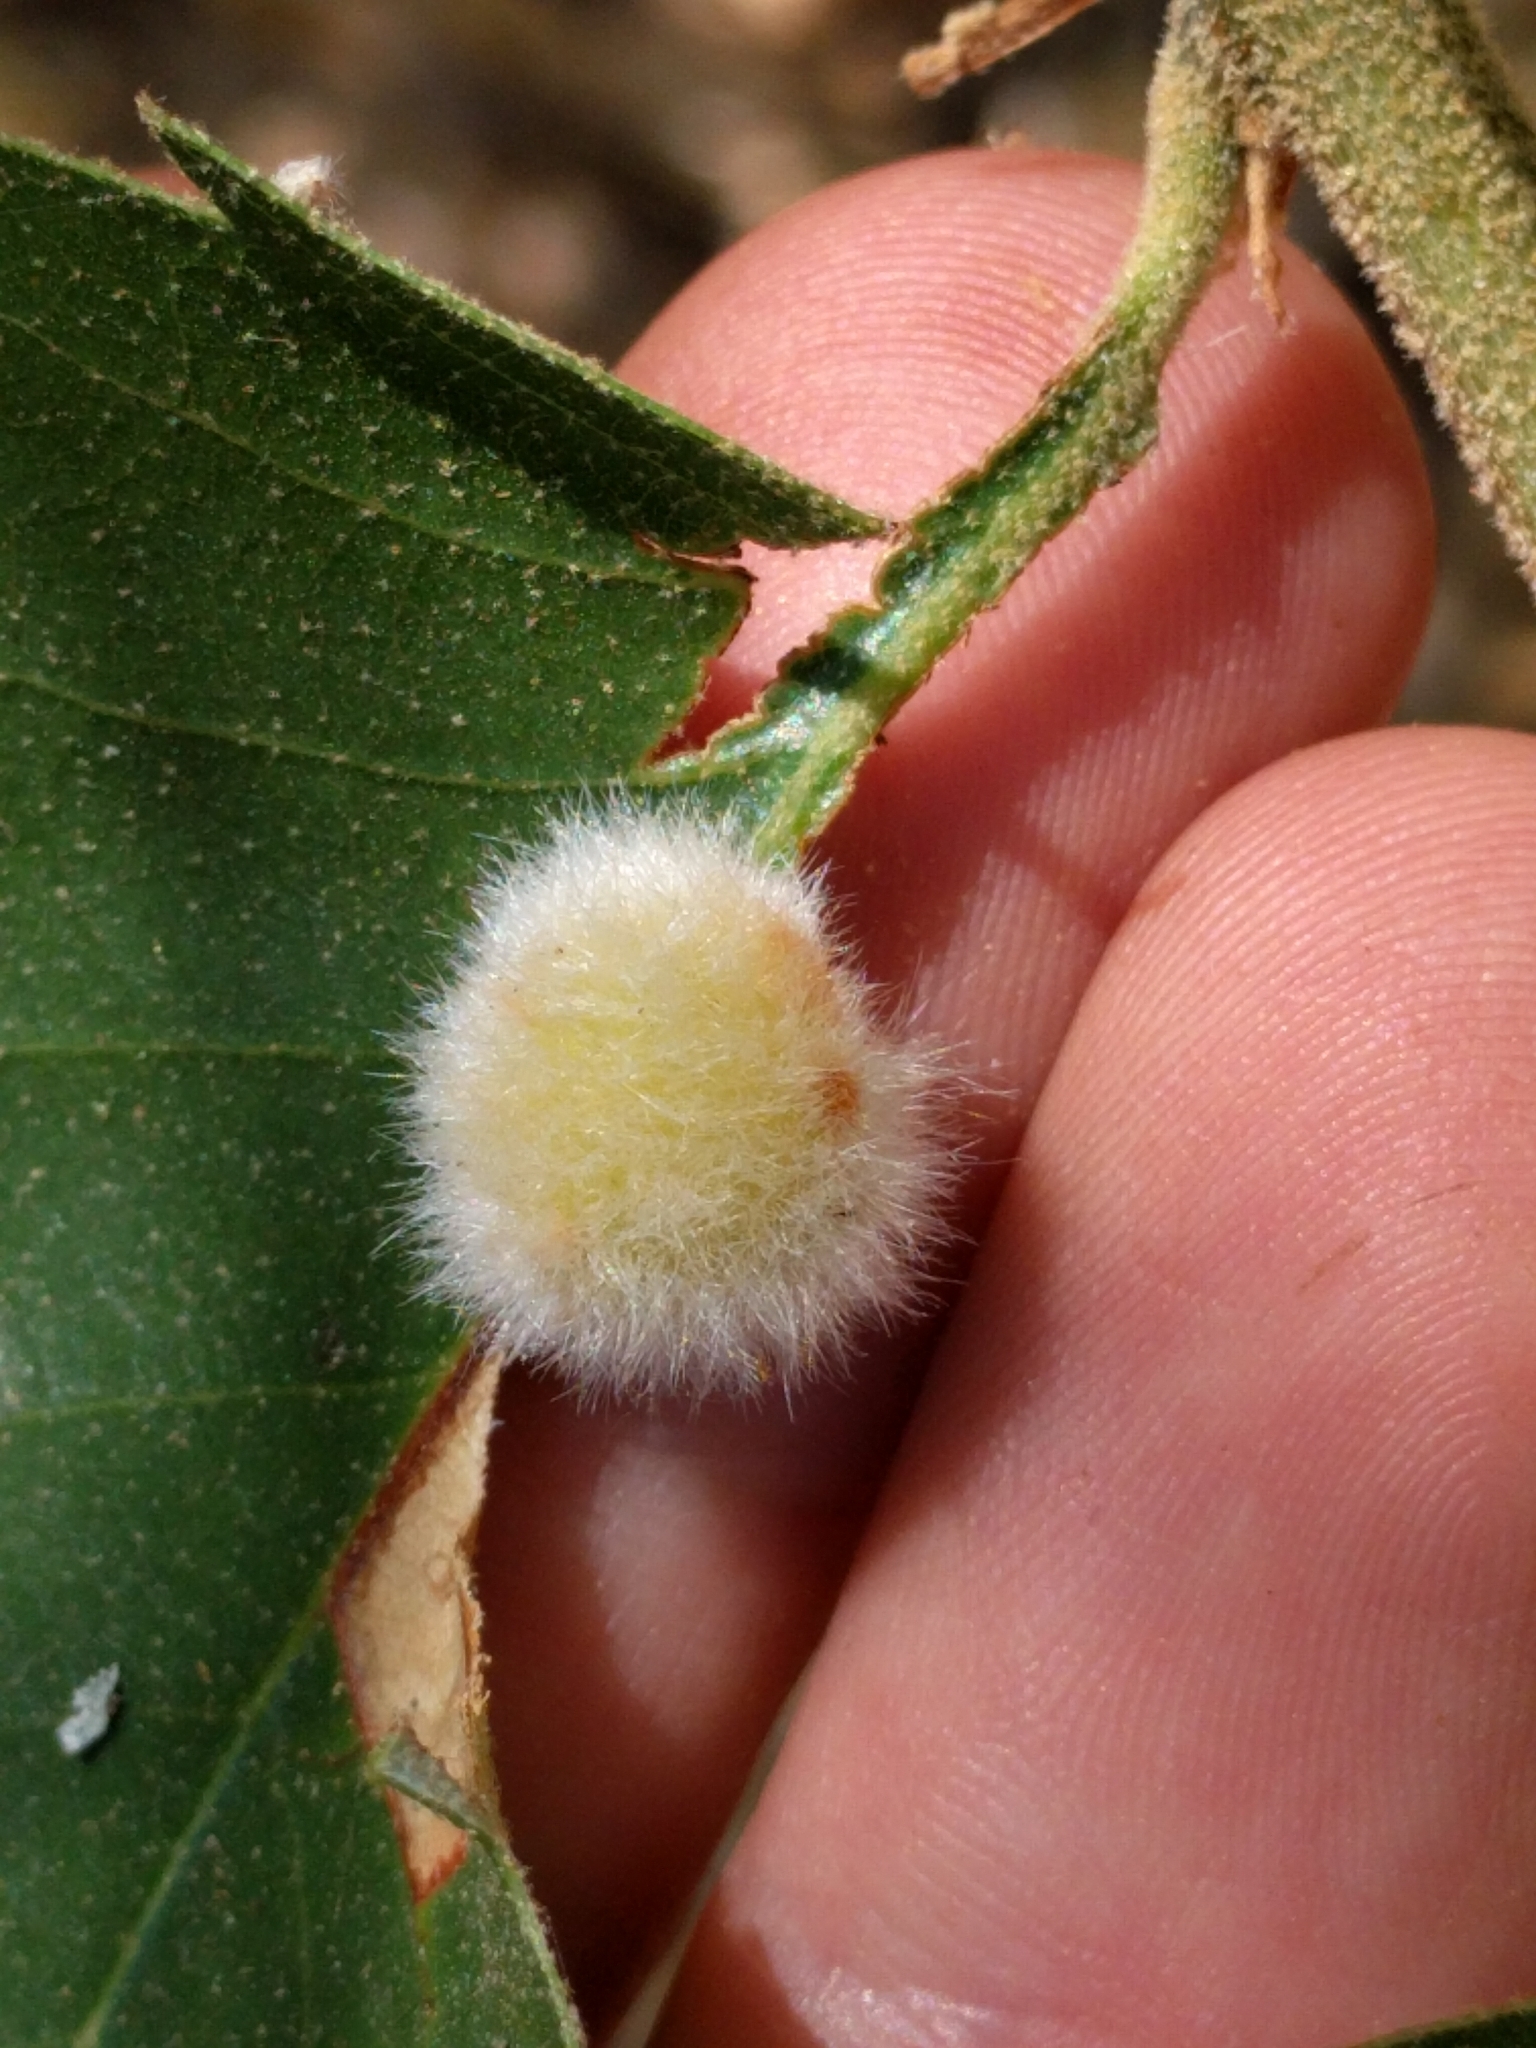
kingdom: Animalia
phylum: Arthropoda
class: Insecta
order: Hymenoptera
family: Cynipidae
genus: Disholandricus
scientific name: Disholandricus
